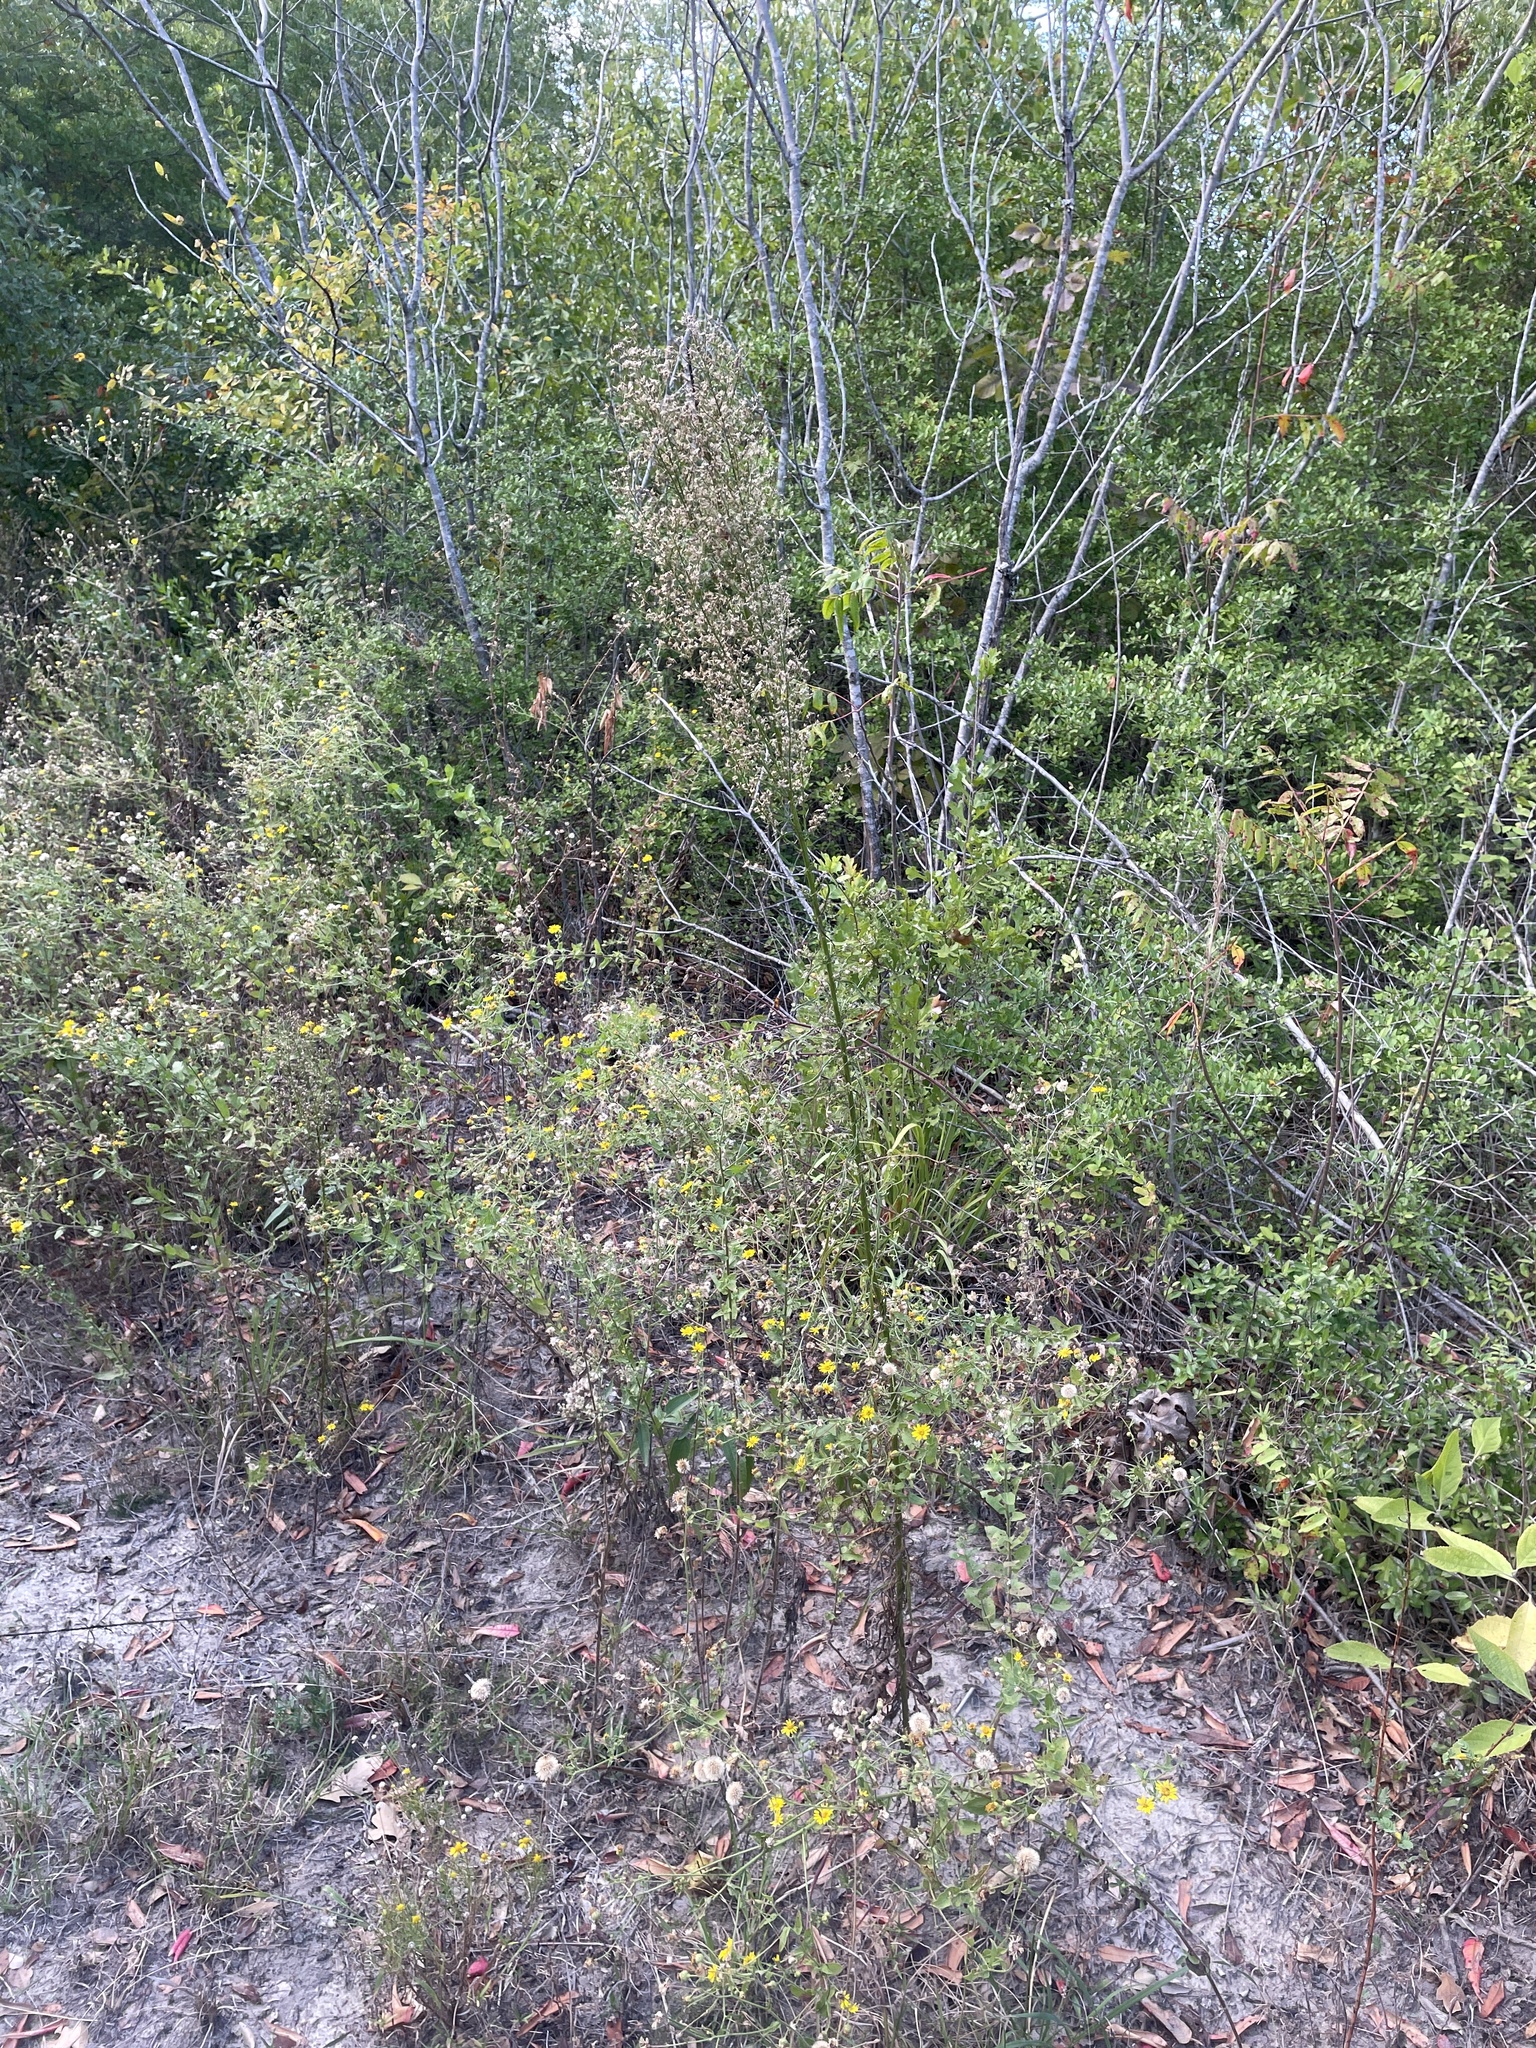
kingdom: Plantae
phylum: Tracheophyta
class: Magnoliopsida
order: Asterales
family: Asteraceae
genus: Erigeron
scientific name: Erigeron canadensis
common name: Canadian fleabane
